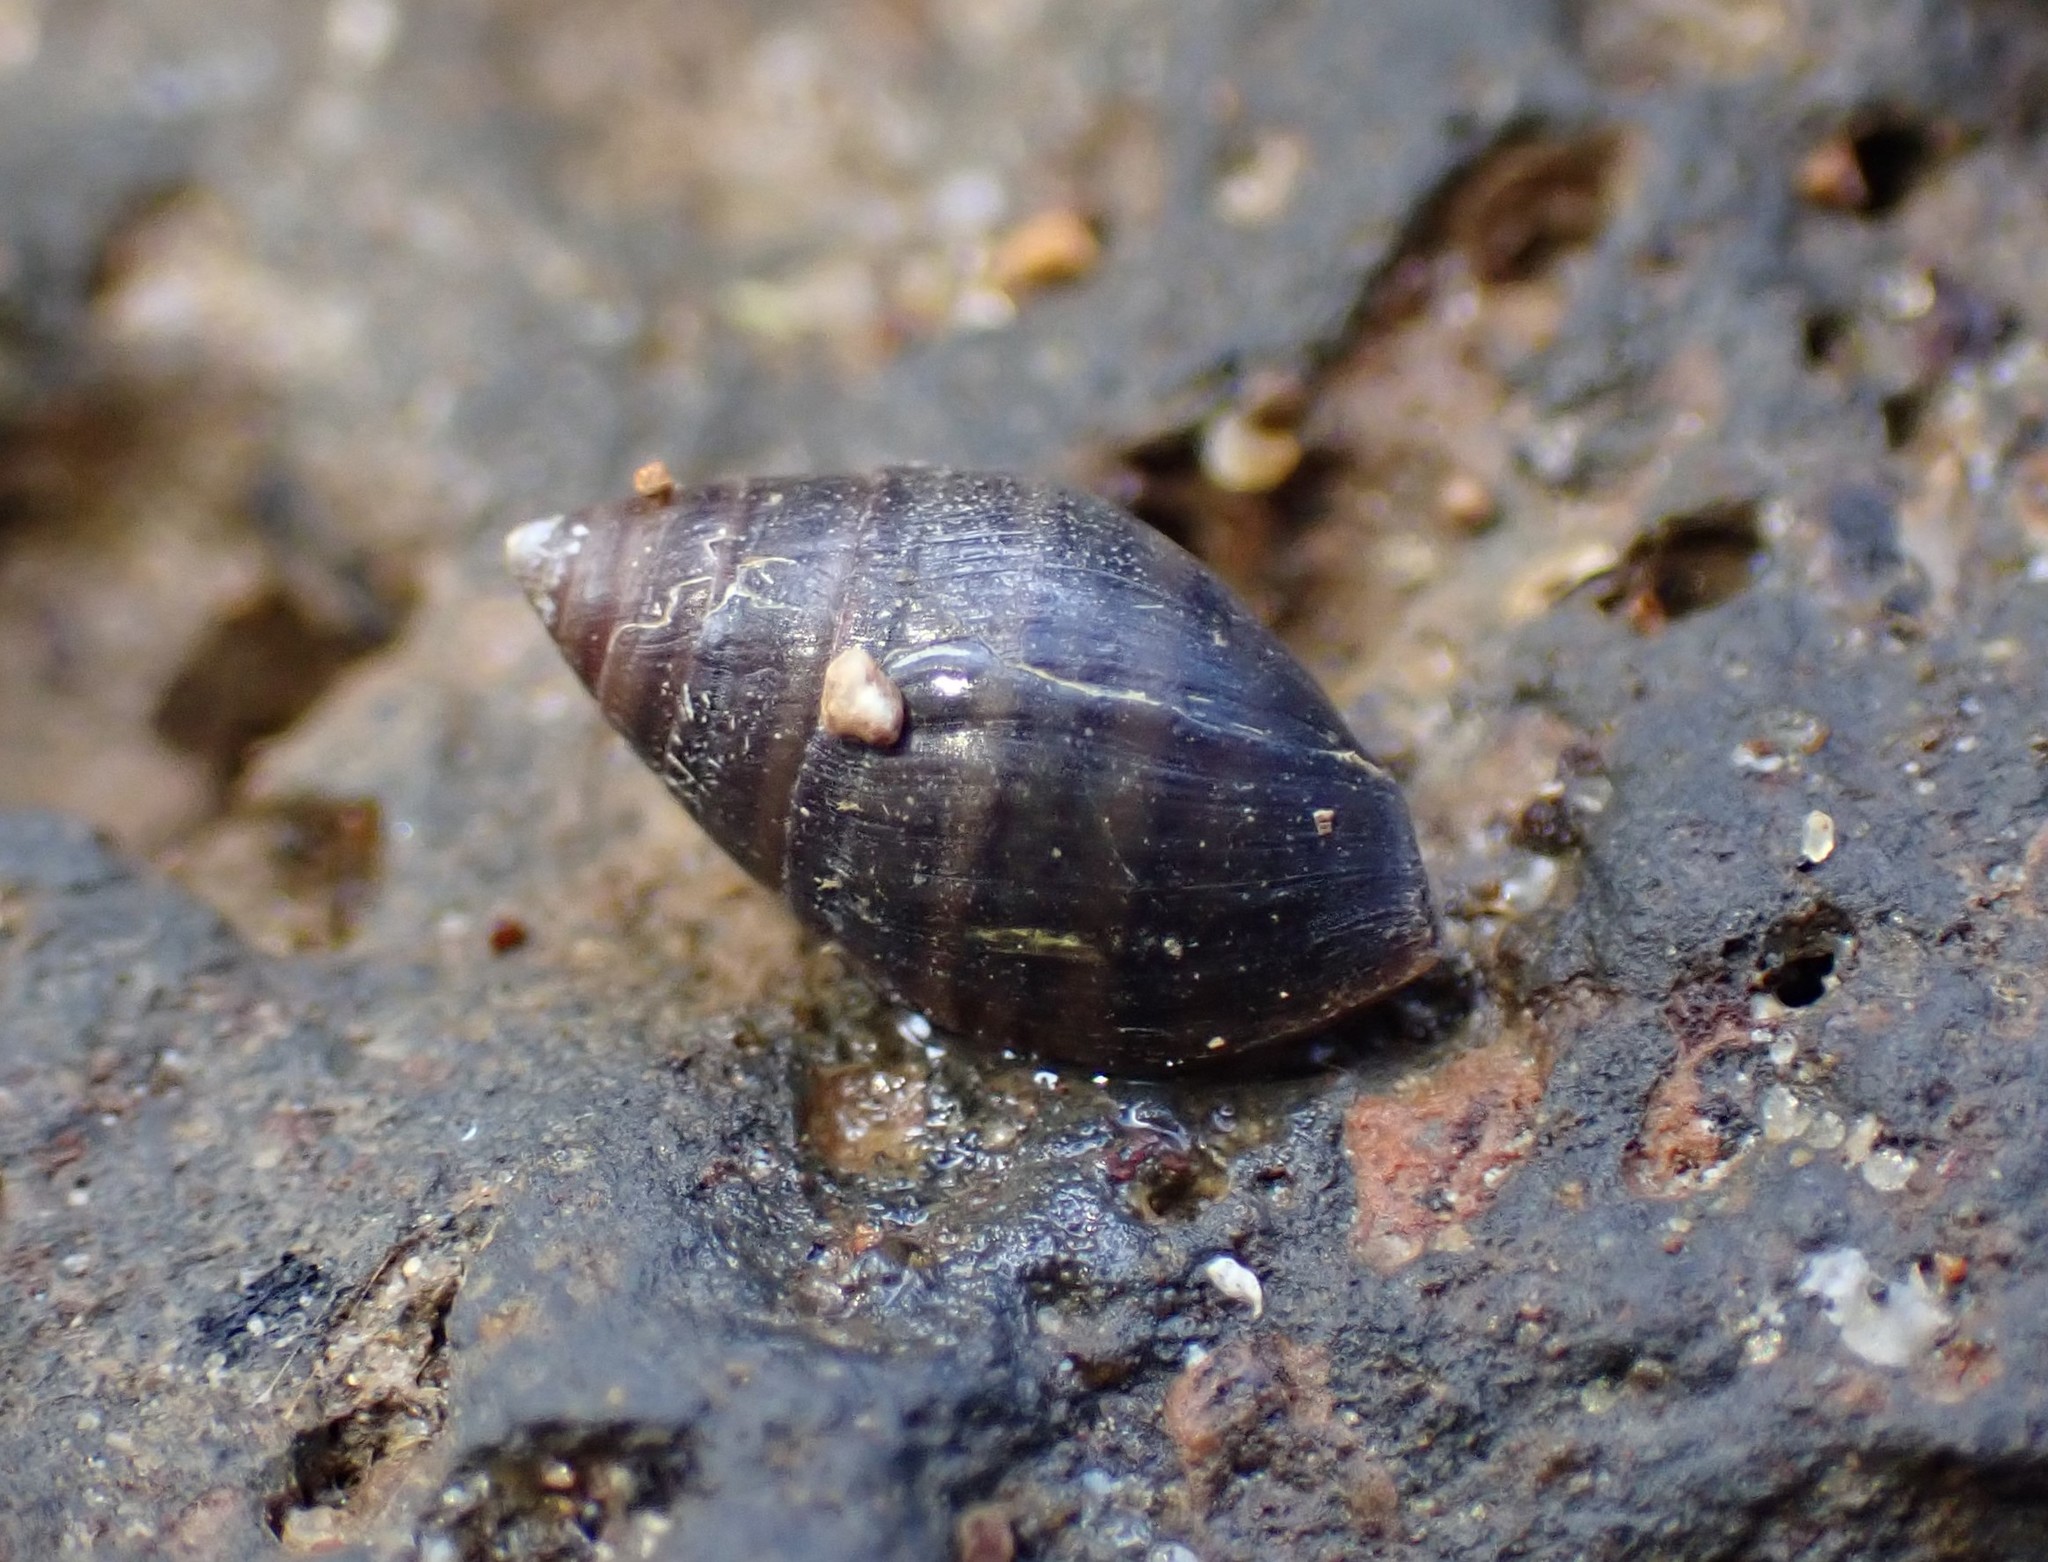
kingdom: Animalia
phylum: Mollusca
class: Gastropoda
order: Ellobiida
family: Ellobiidae
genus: Pleuroloba
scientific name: Pleuroloba costellaris
